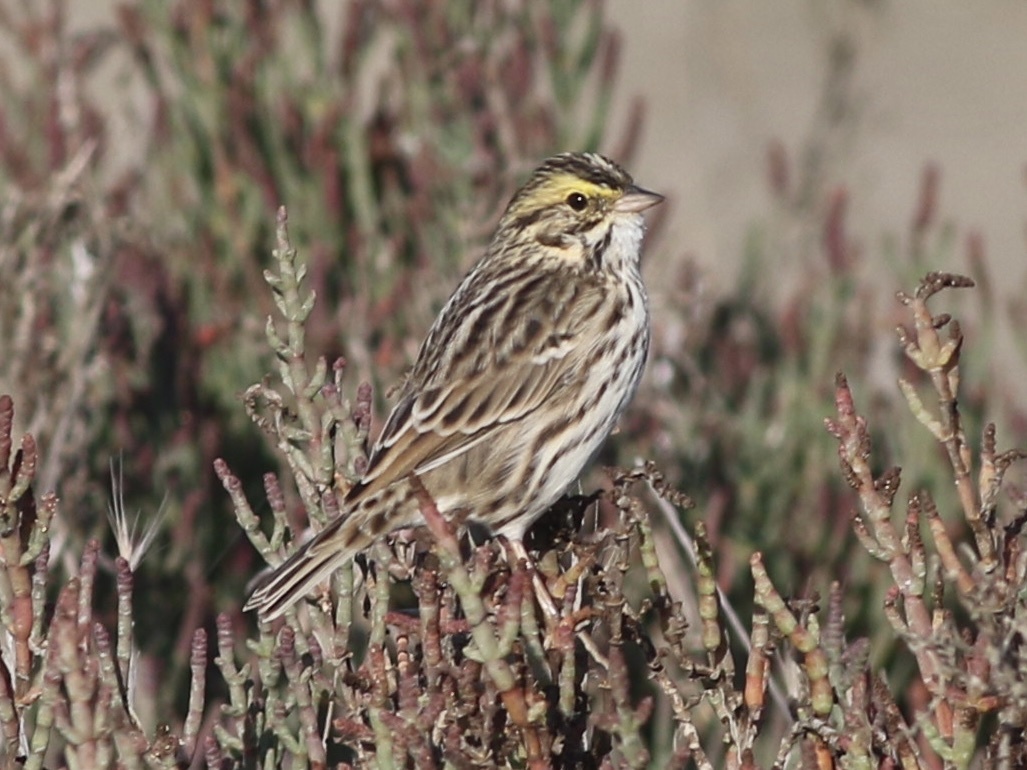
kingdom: Animalia
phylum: Chordata
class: Aves
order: Passeriformes
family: Passerellidae
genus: Passerculus
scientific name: Passerculus sandwichensis
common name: Savannah sparrow
